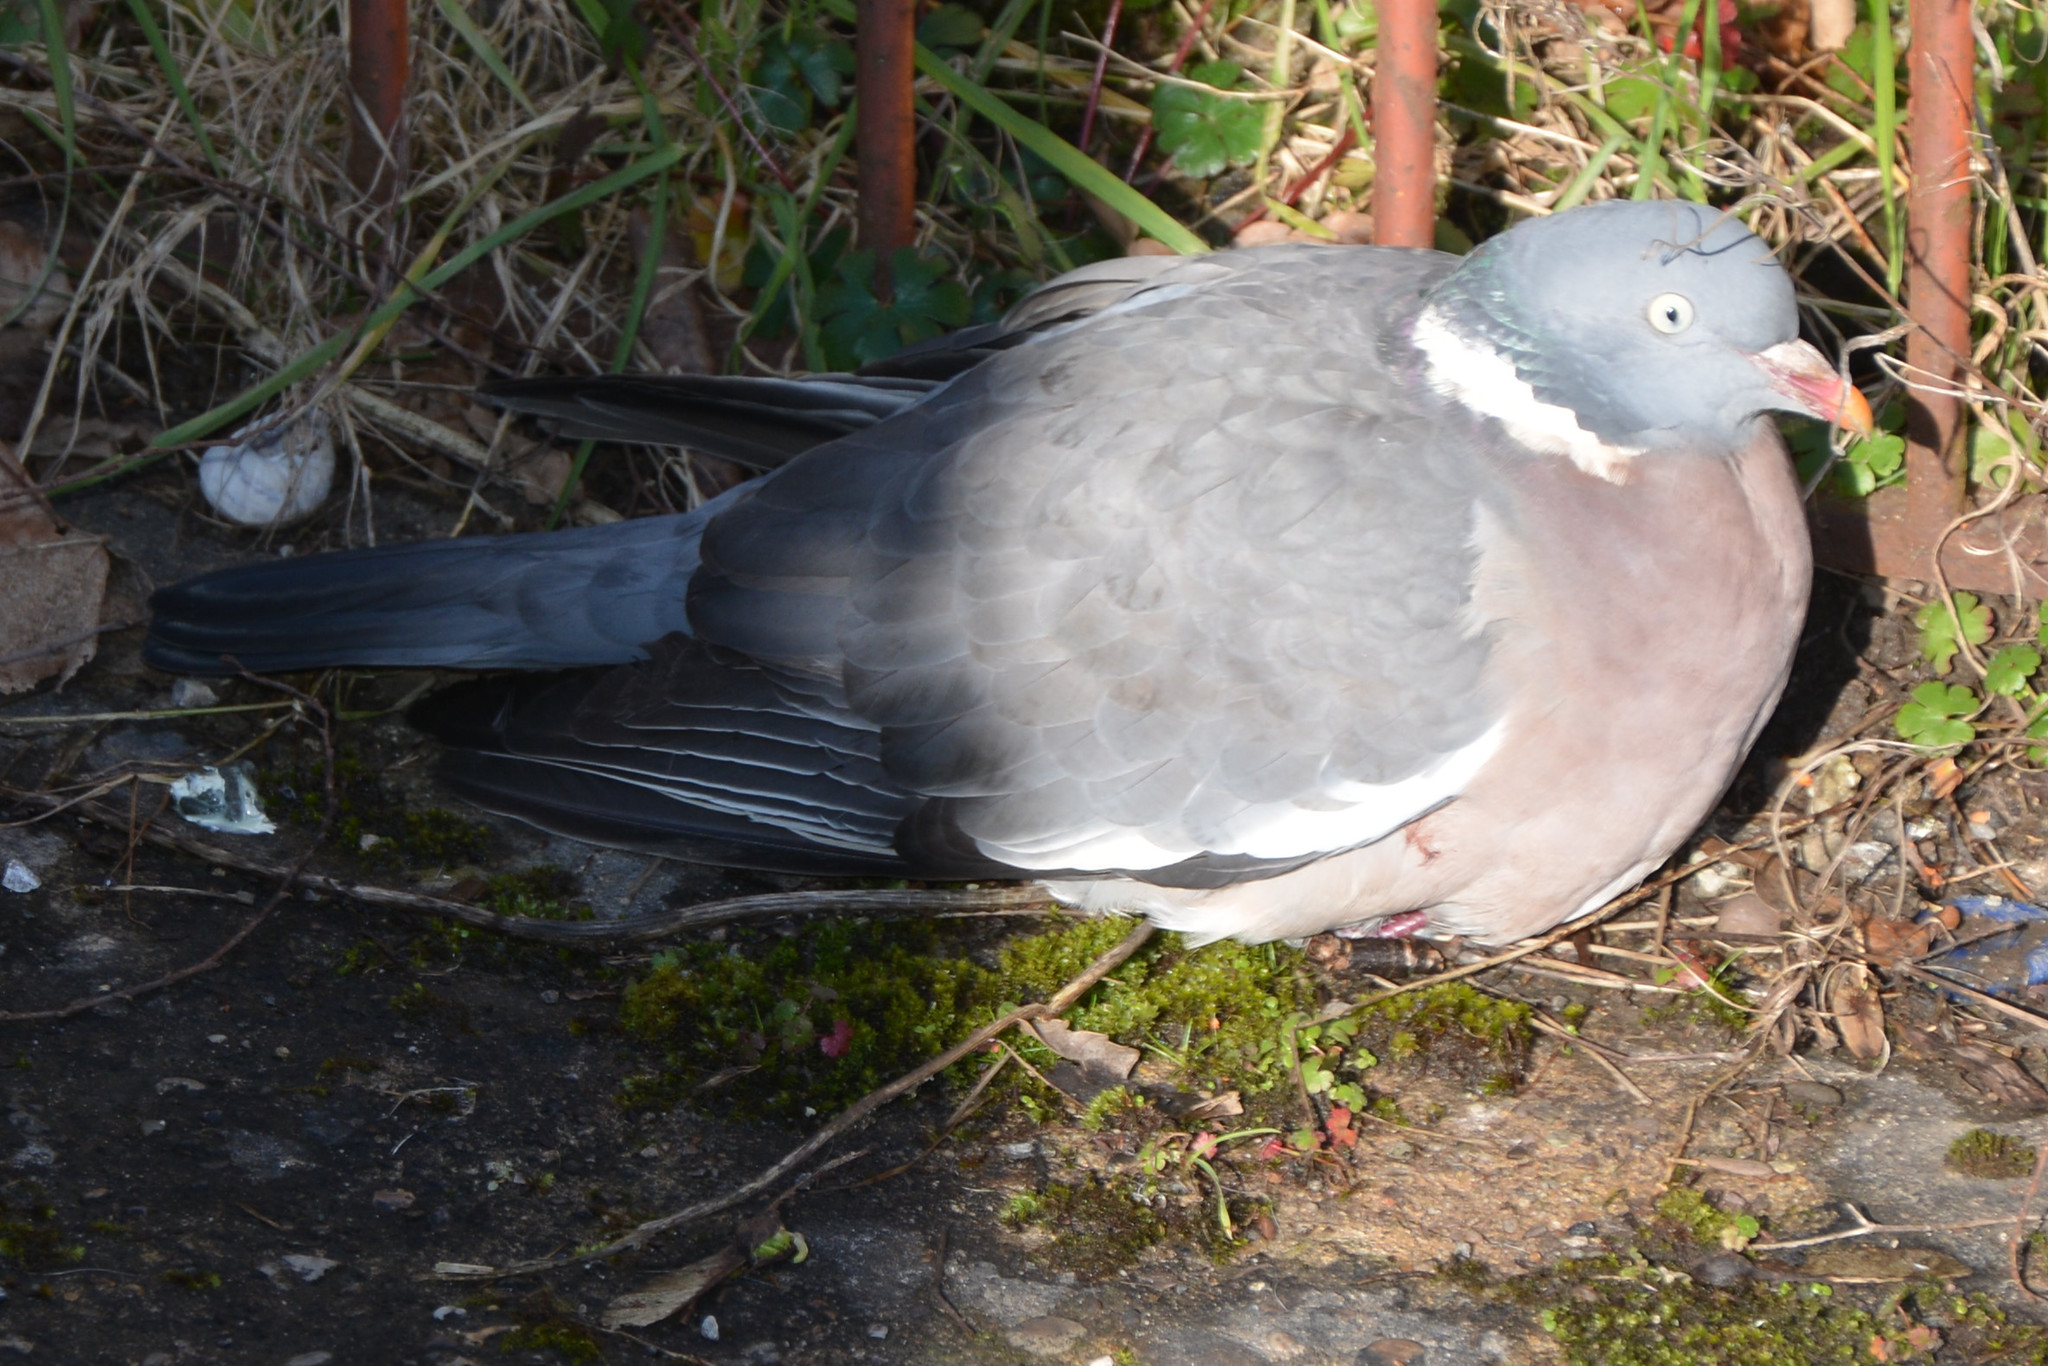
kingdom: Animalia
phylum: Chordata
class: Aves
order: Columbiformes
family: Columbidae
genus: Columba
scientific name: Columba palumbus
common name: Common wood pigeon
